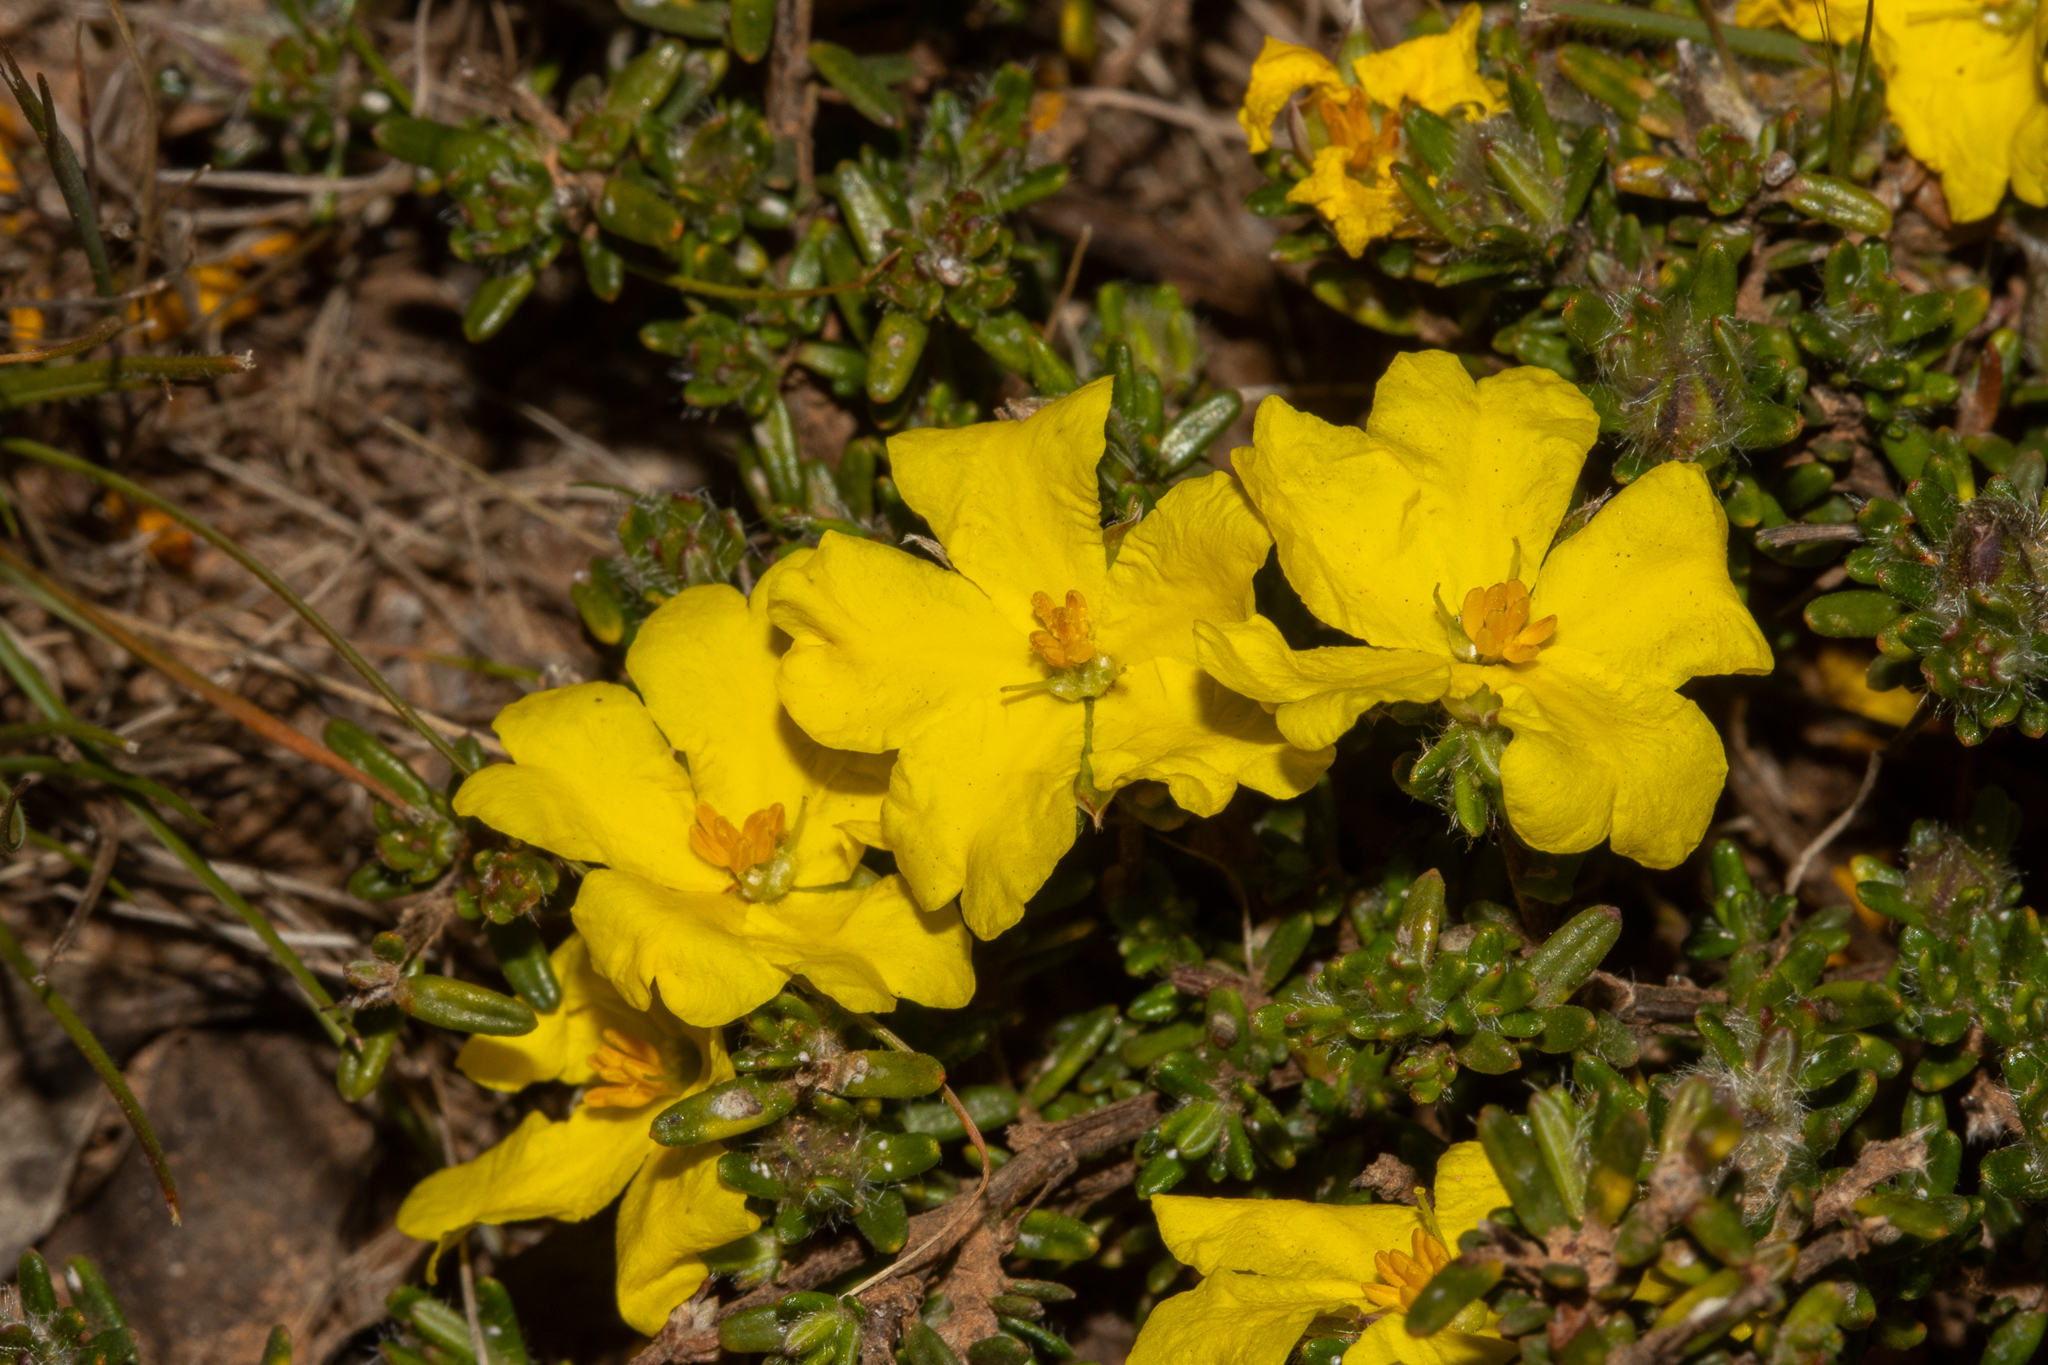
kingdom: Plantae
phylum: Tracheophyta
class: Magnoliopsida
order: Dilleniales
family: Dilleniaceae
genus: Hibbertia
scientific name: Hibbertia paeninsularis
